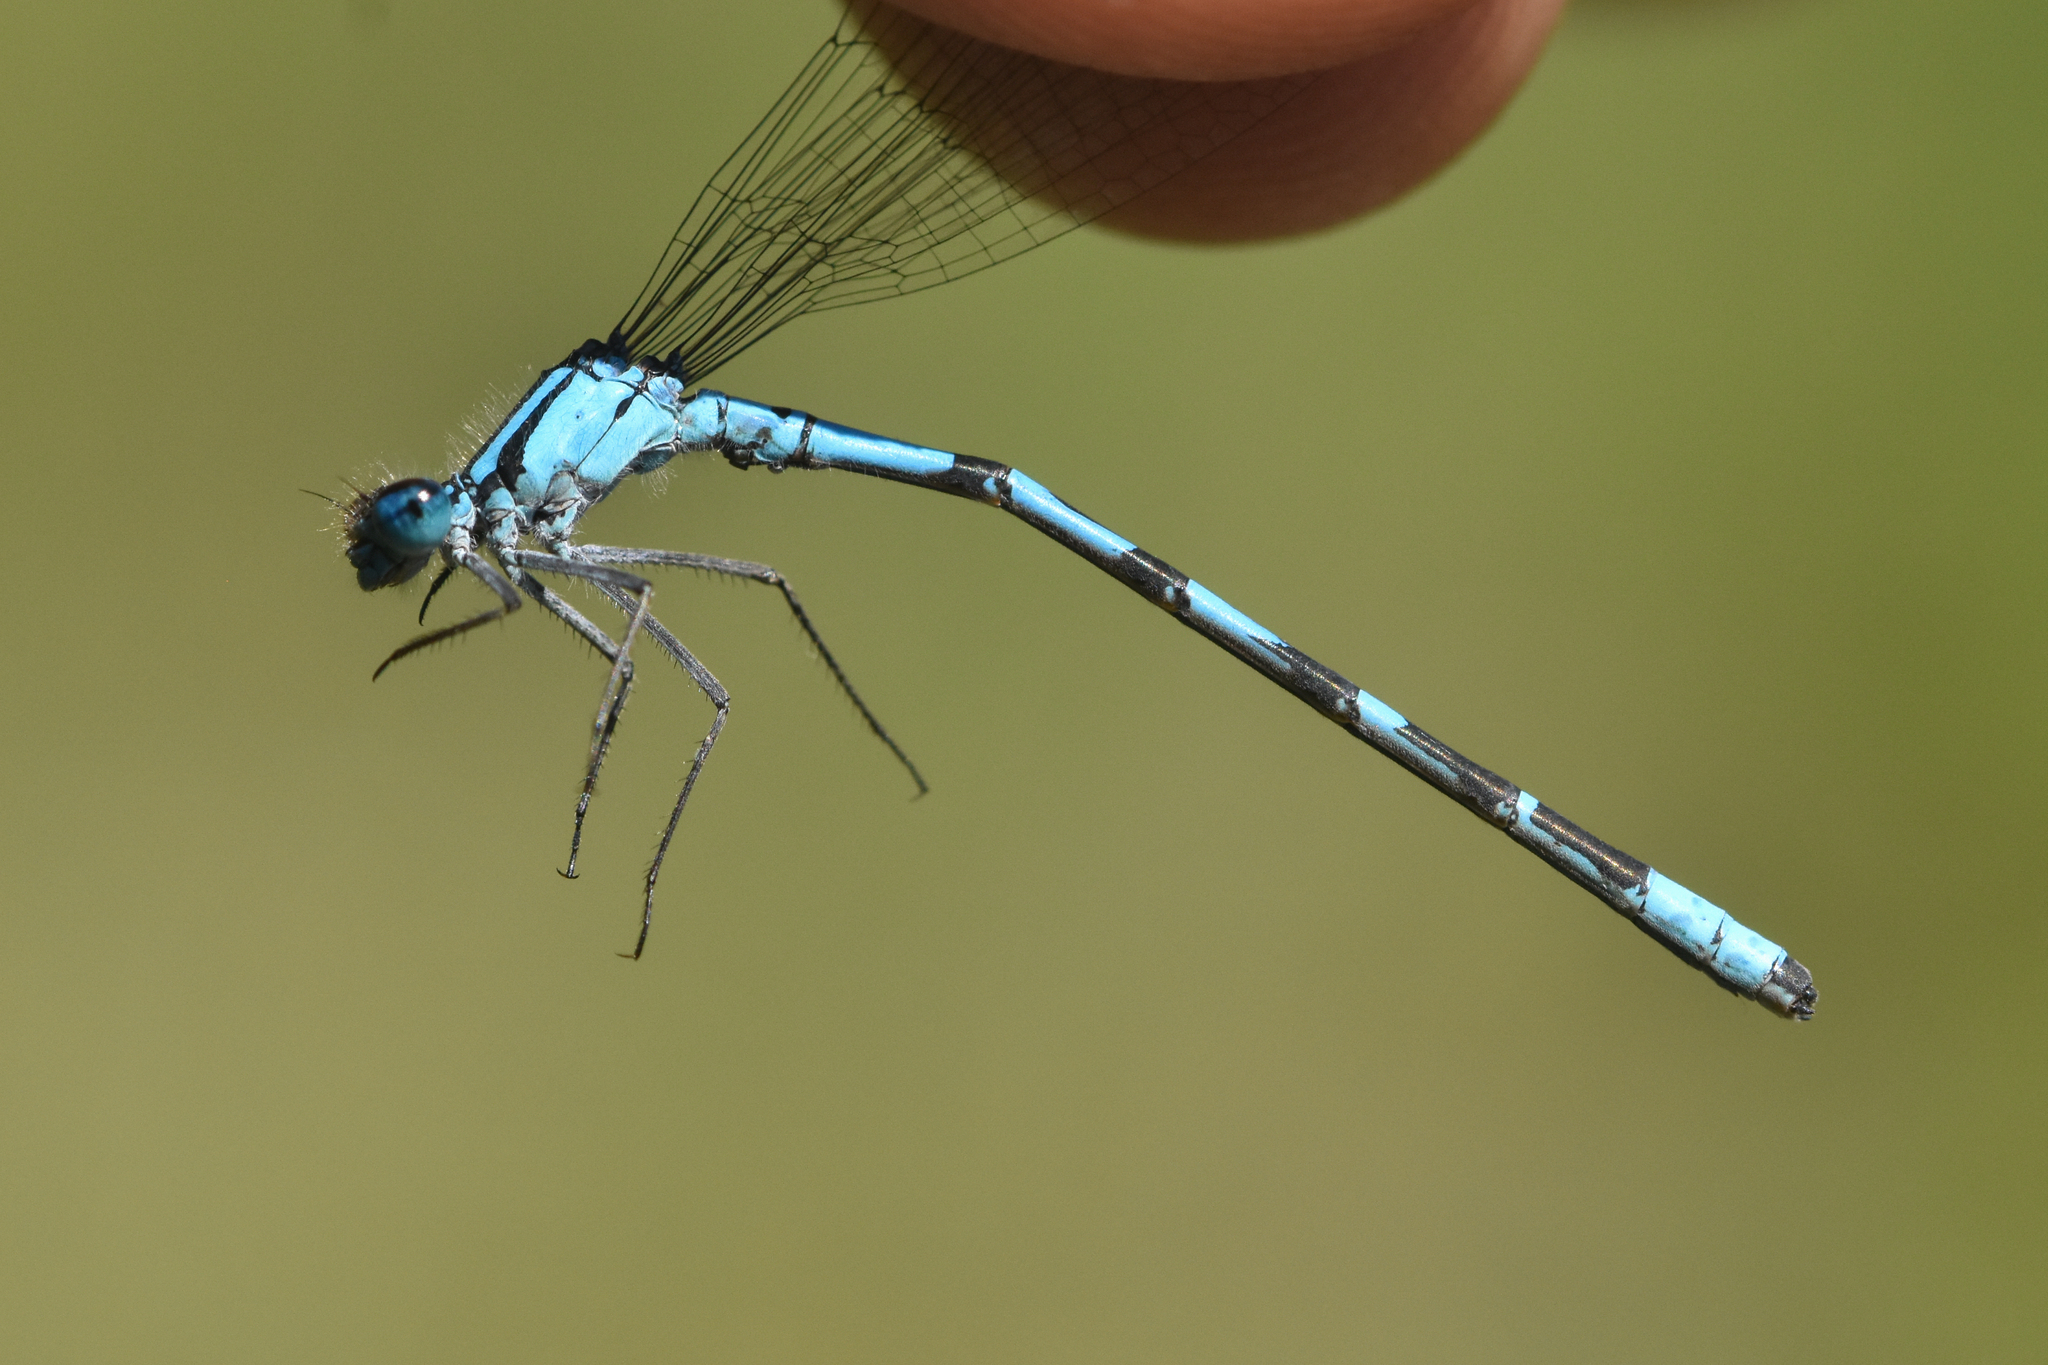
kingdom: Animalia
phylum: Arthropoda
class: Insecta
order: Odonata
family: Coenagrionidae
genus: Enallagma
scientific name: Enallagma boreale
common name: Boreal bluet
